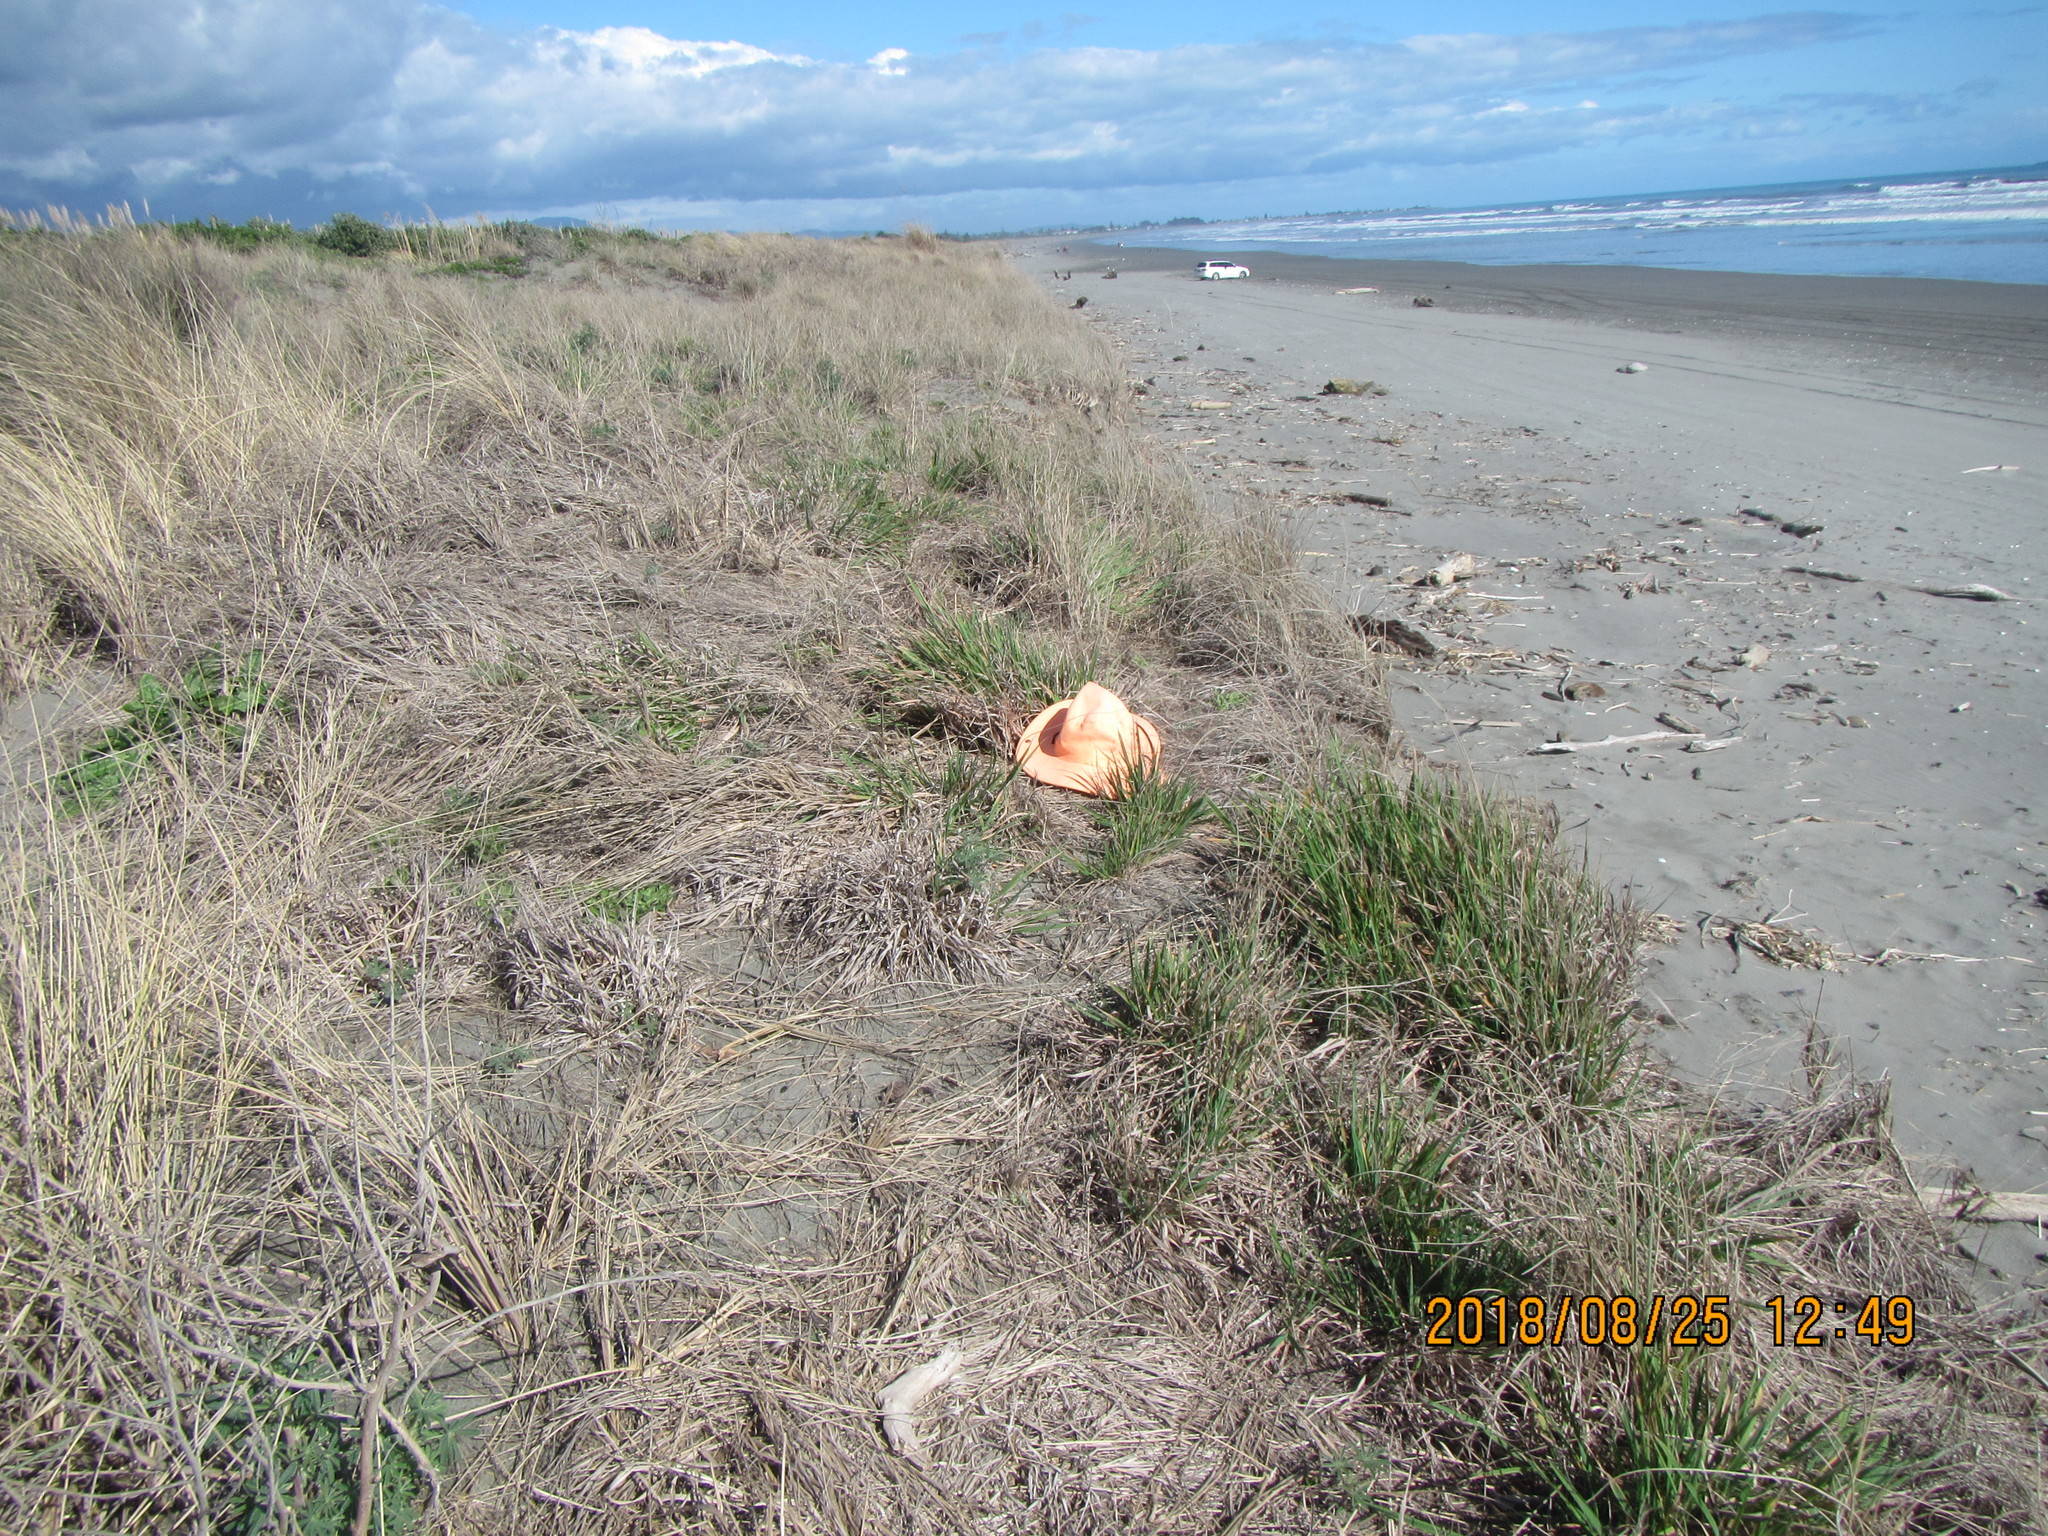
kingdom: Plantae
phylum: Tracheophyta
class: Liliopsida
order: Poales
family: Poaceae
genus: Lachnagrostis
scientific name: Lachnagrostis billardierei
